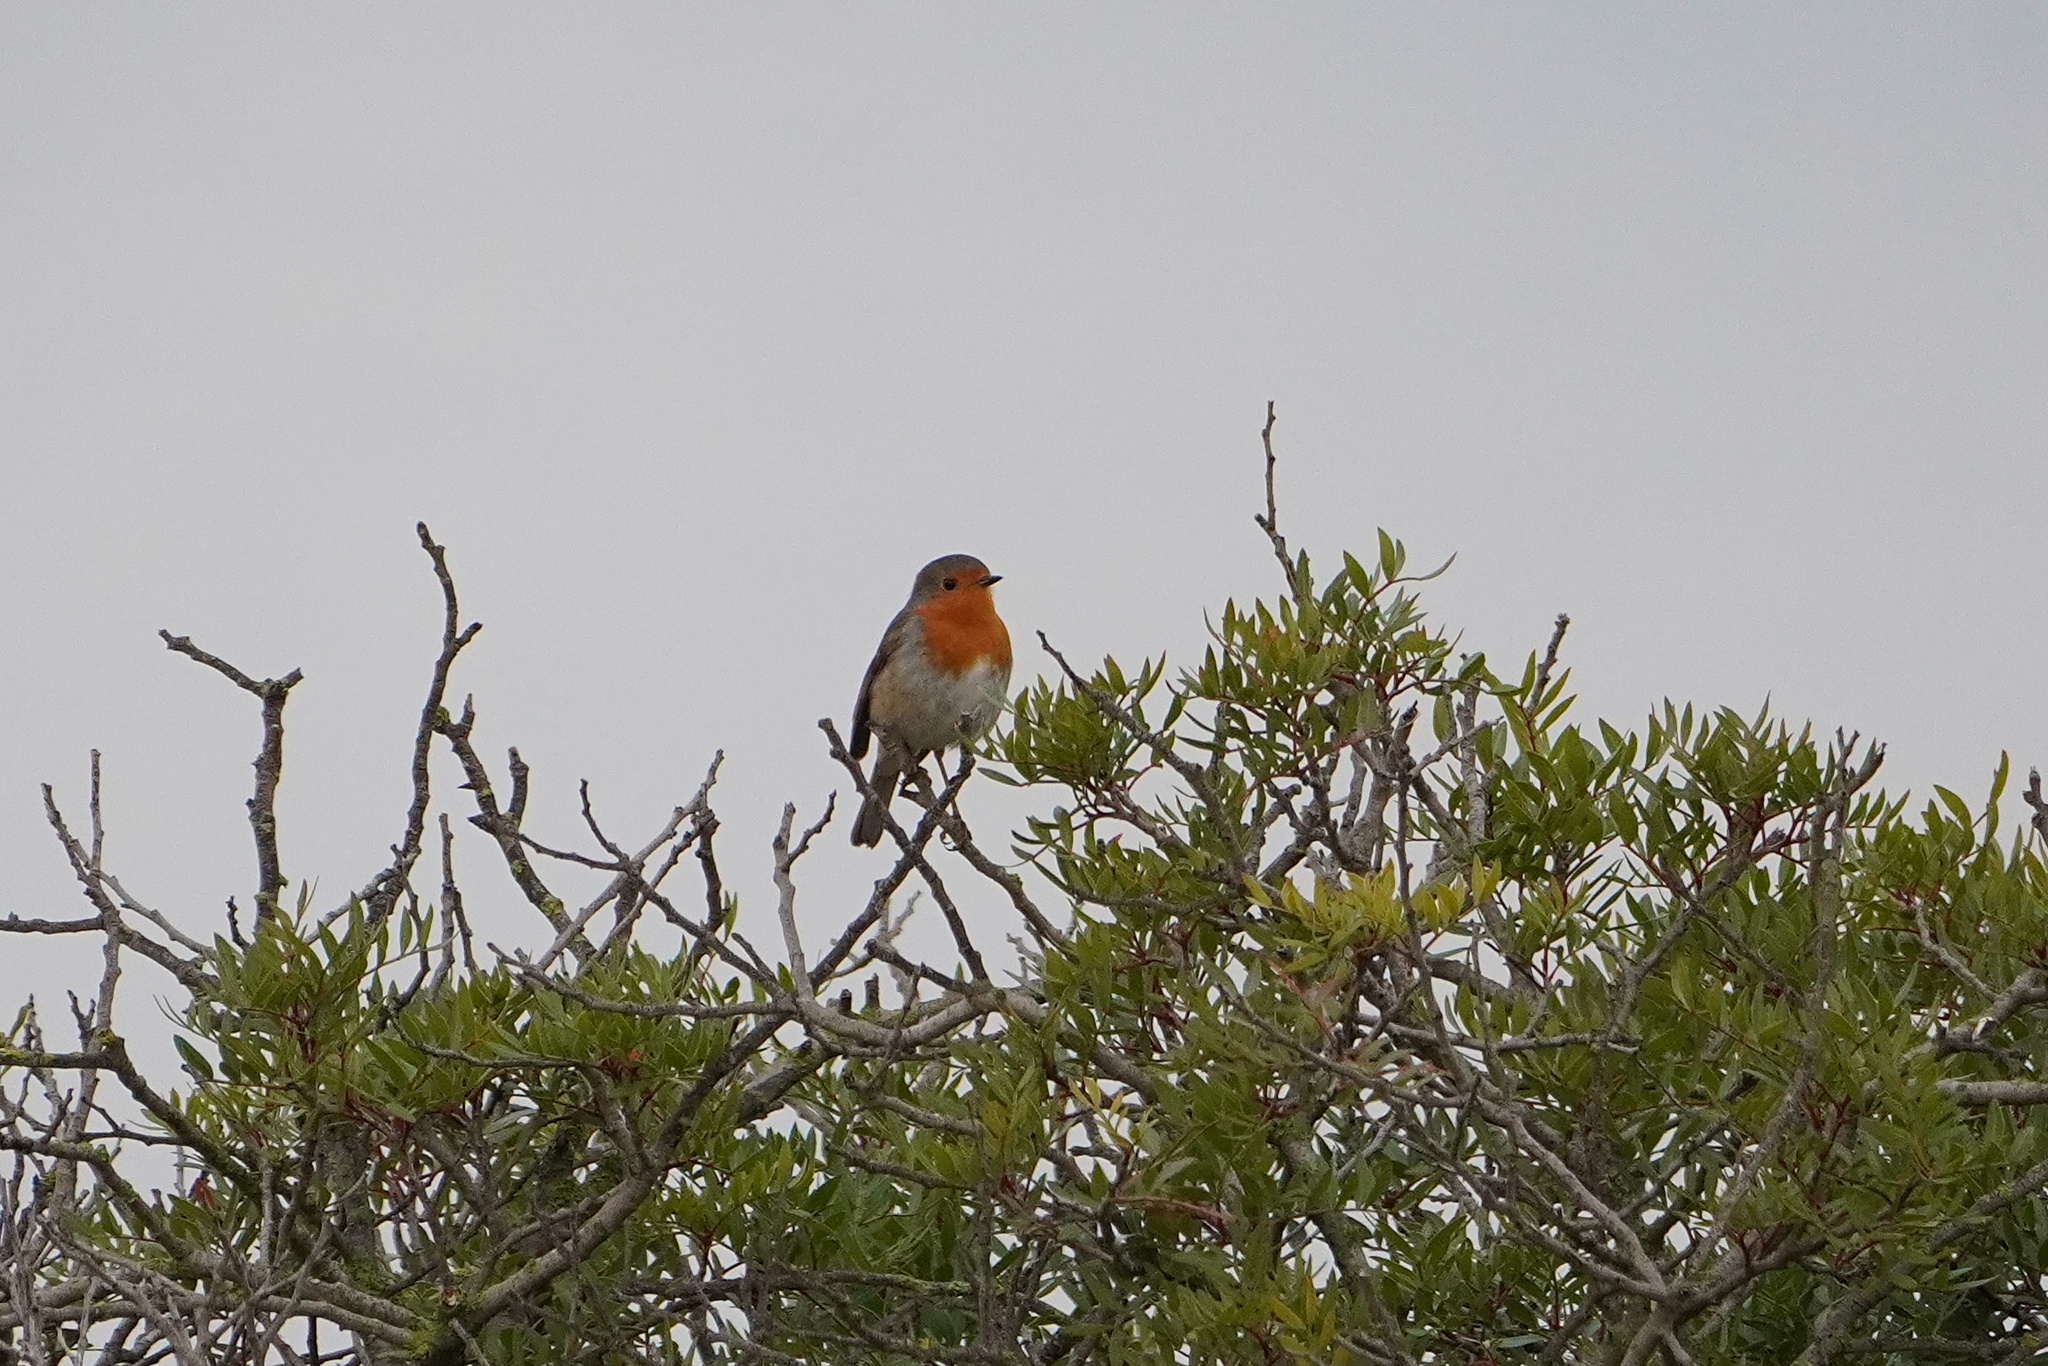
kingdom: Animalia
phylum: Chordata
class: Aves
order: Passeriformes
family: Muscicapidae
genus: Erithacus
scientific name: Erithacus rubecula
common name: European robin
